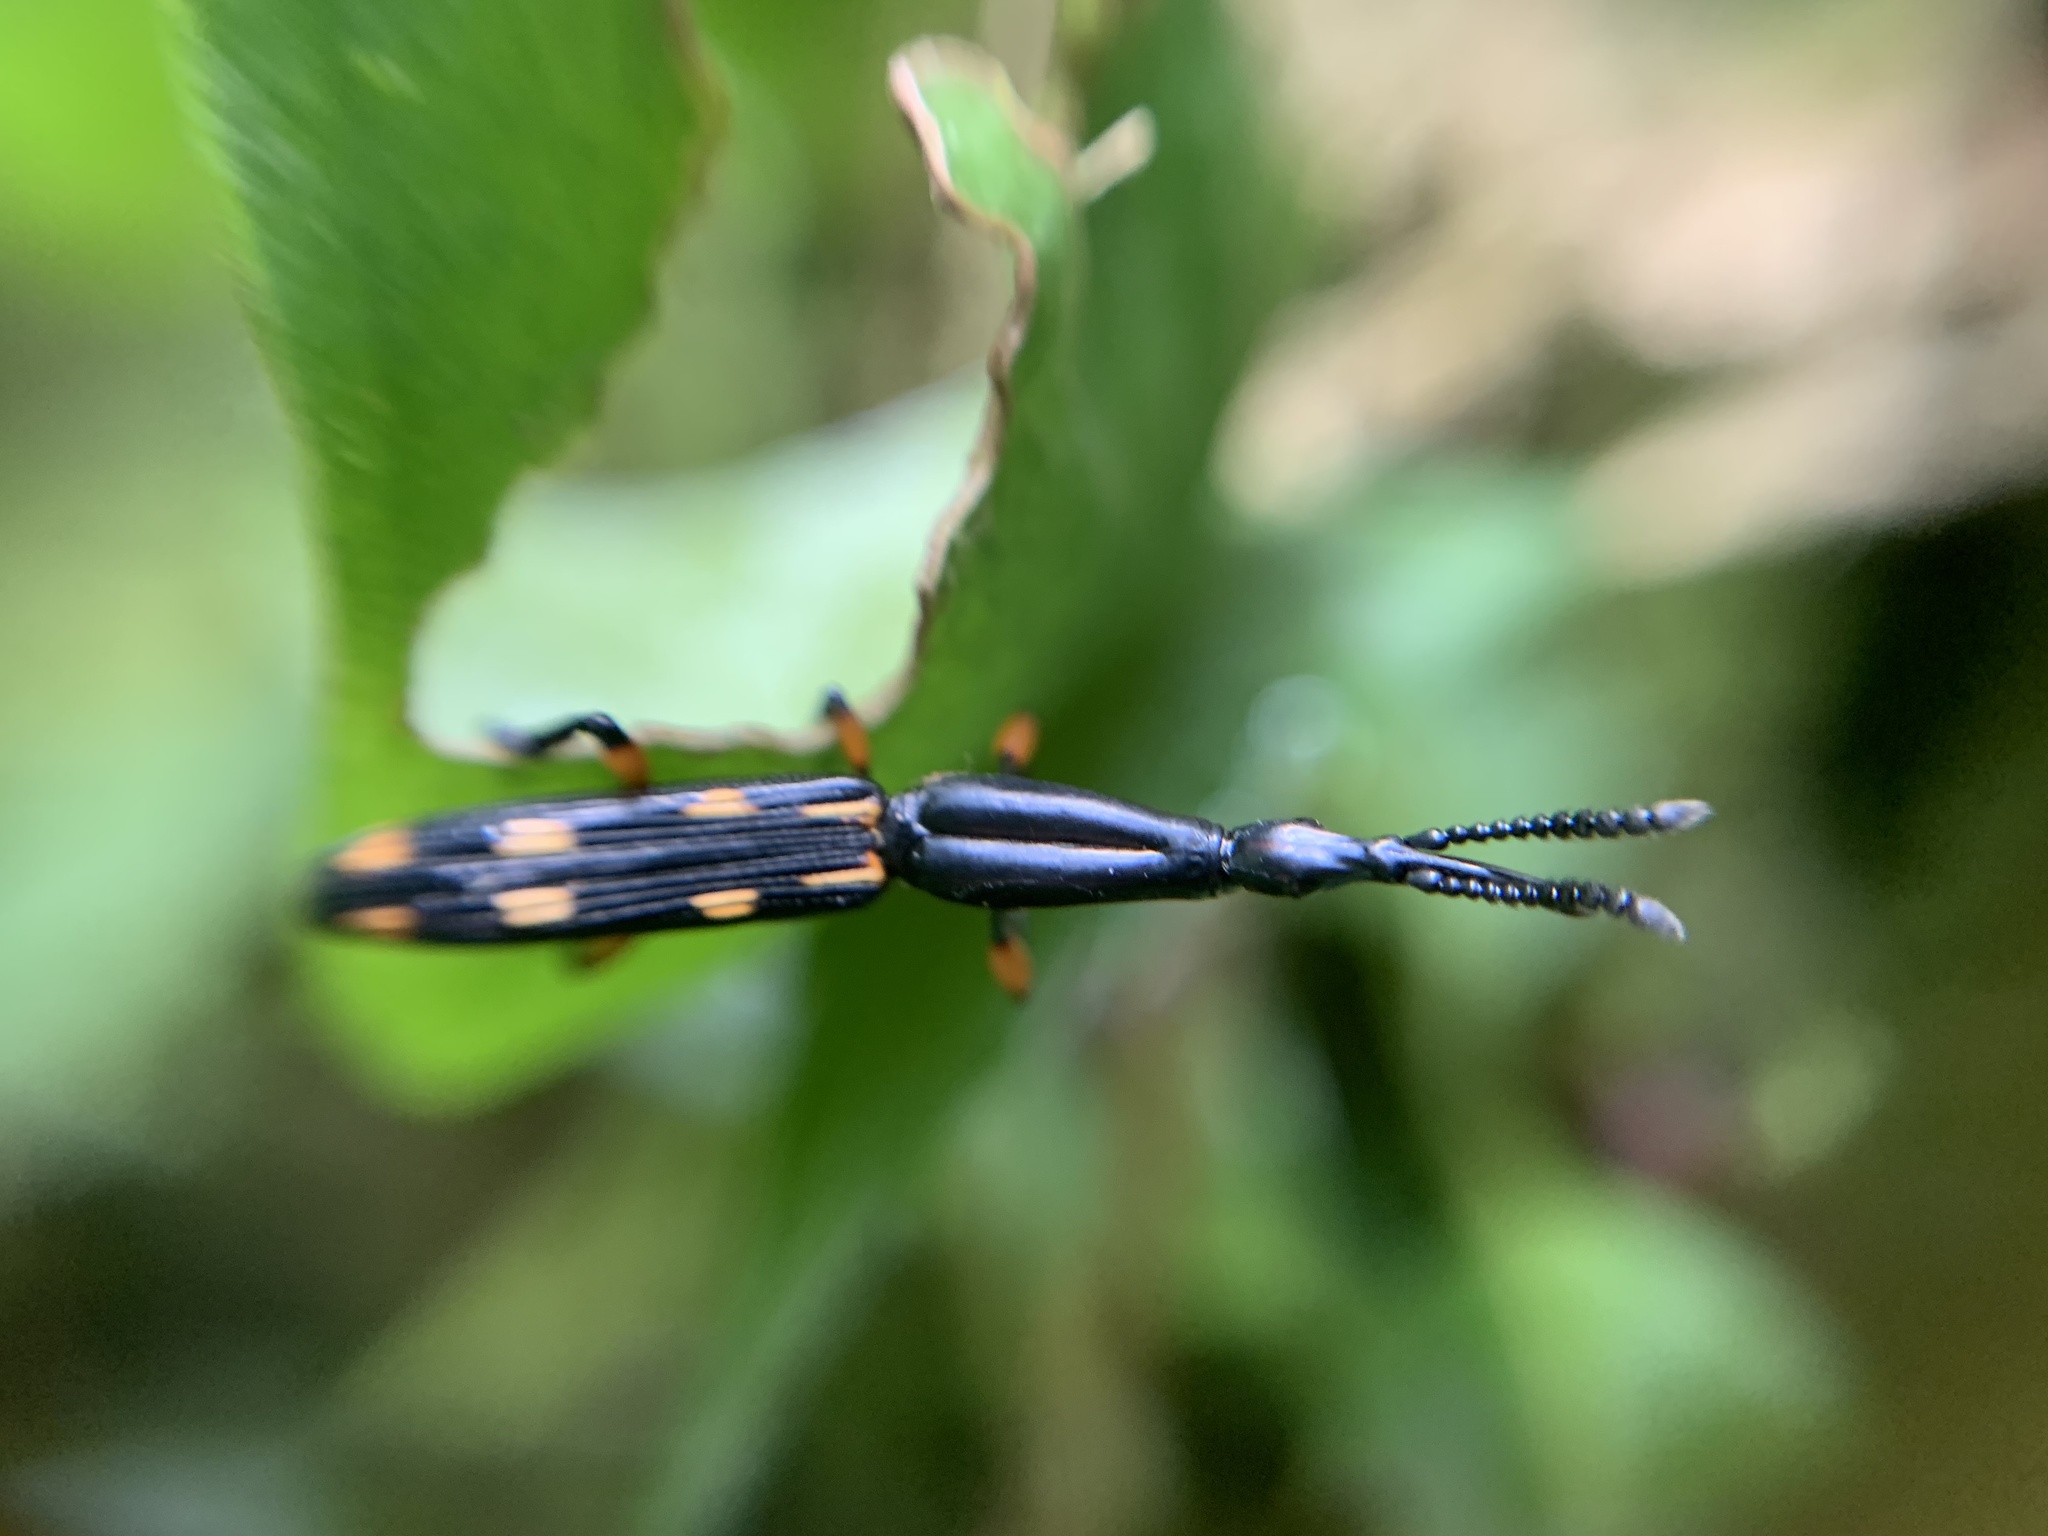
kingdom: Animalia
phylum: Arthropoda
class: Insecta
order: Coleoptera
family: Brentidae
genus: Brentus
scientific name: Brentus maculipennis
